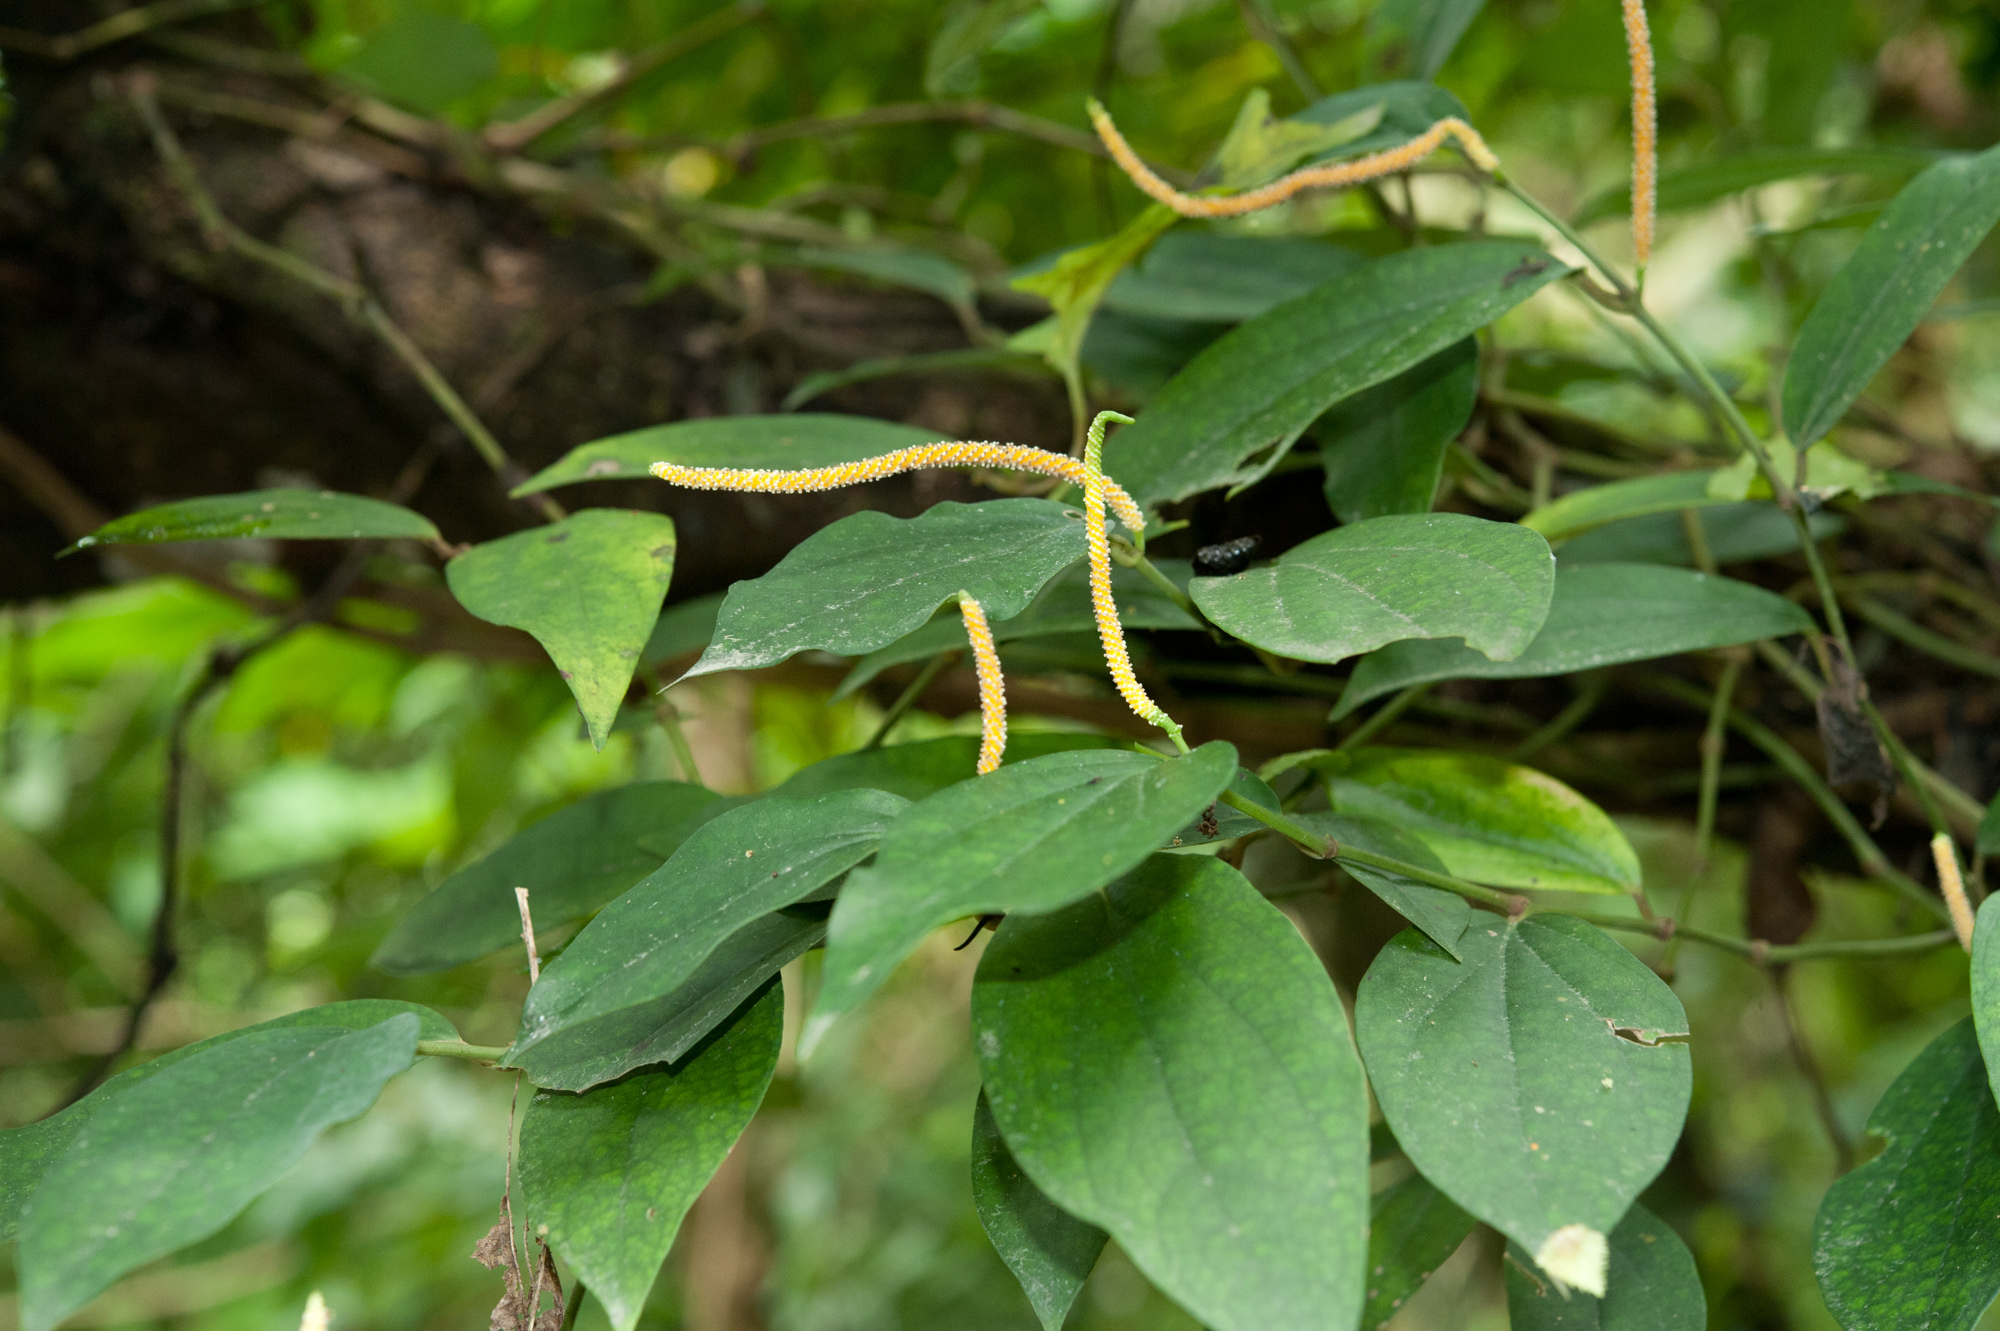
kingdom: Plantae
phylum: Tracheophyta
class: Magnoliopsida
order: Piperales
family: Piperaceae
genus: Piper
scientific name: Piper kadsura
